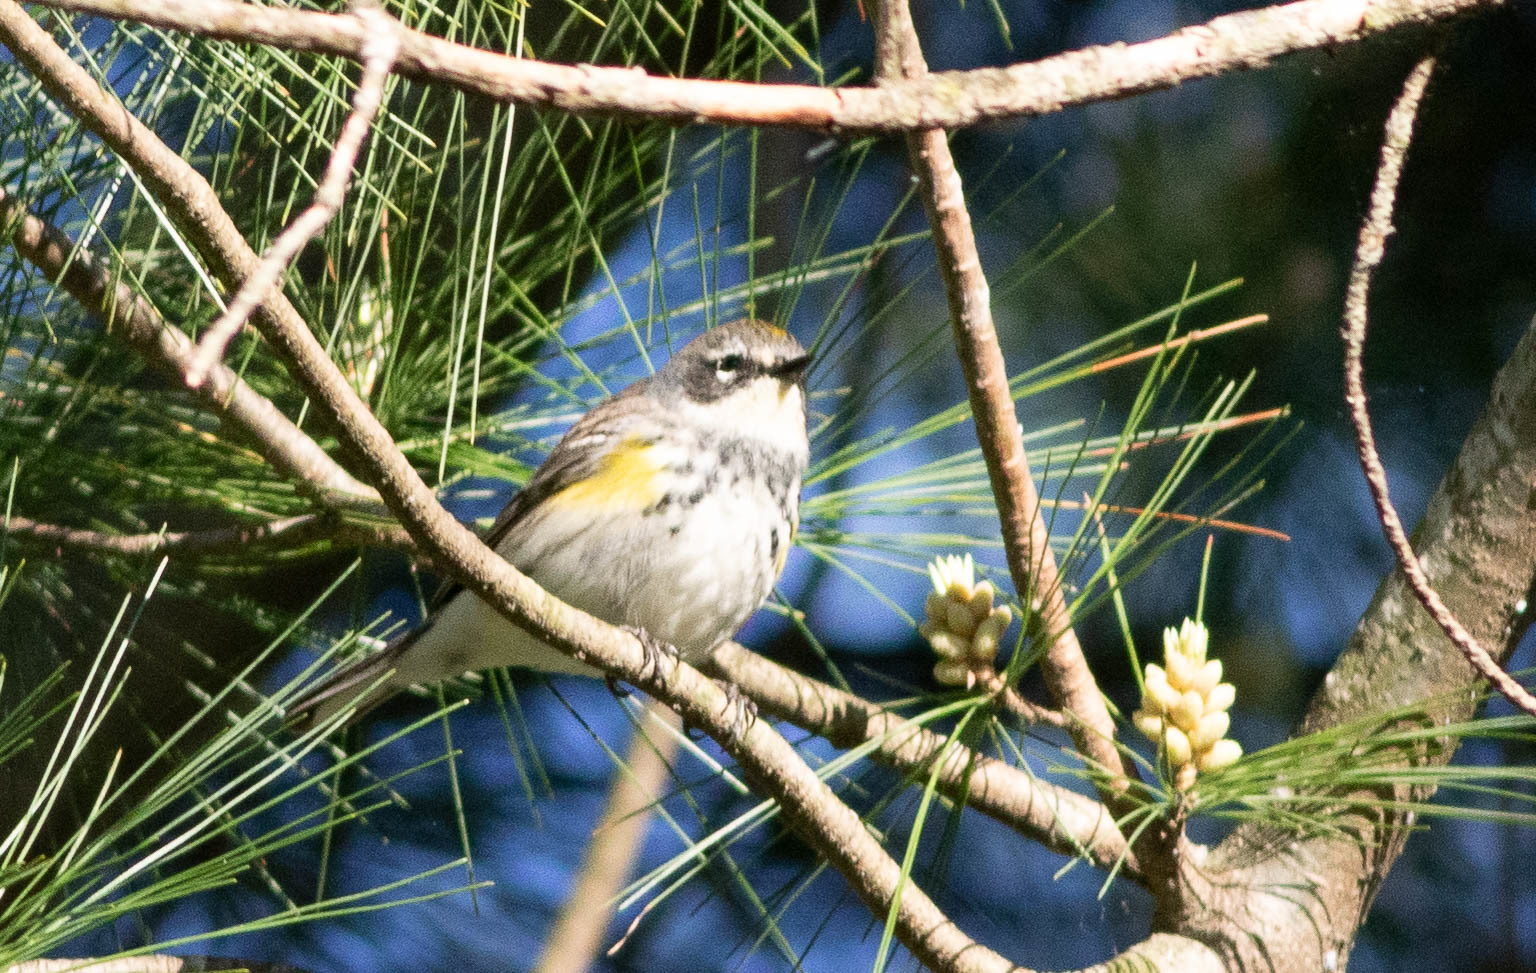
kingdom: Animalia
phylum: Chordata
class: Aves
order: Passeriformes
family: Parulidae
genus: Setophaga
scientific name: Setophaga coronata
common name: Myrtle warbler
